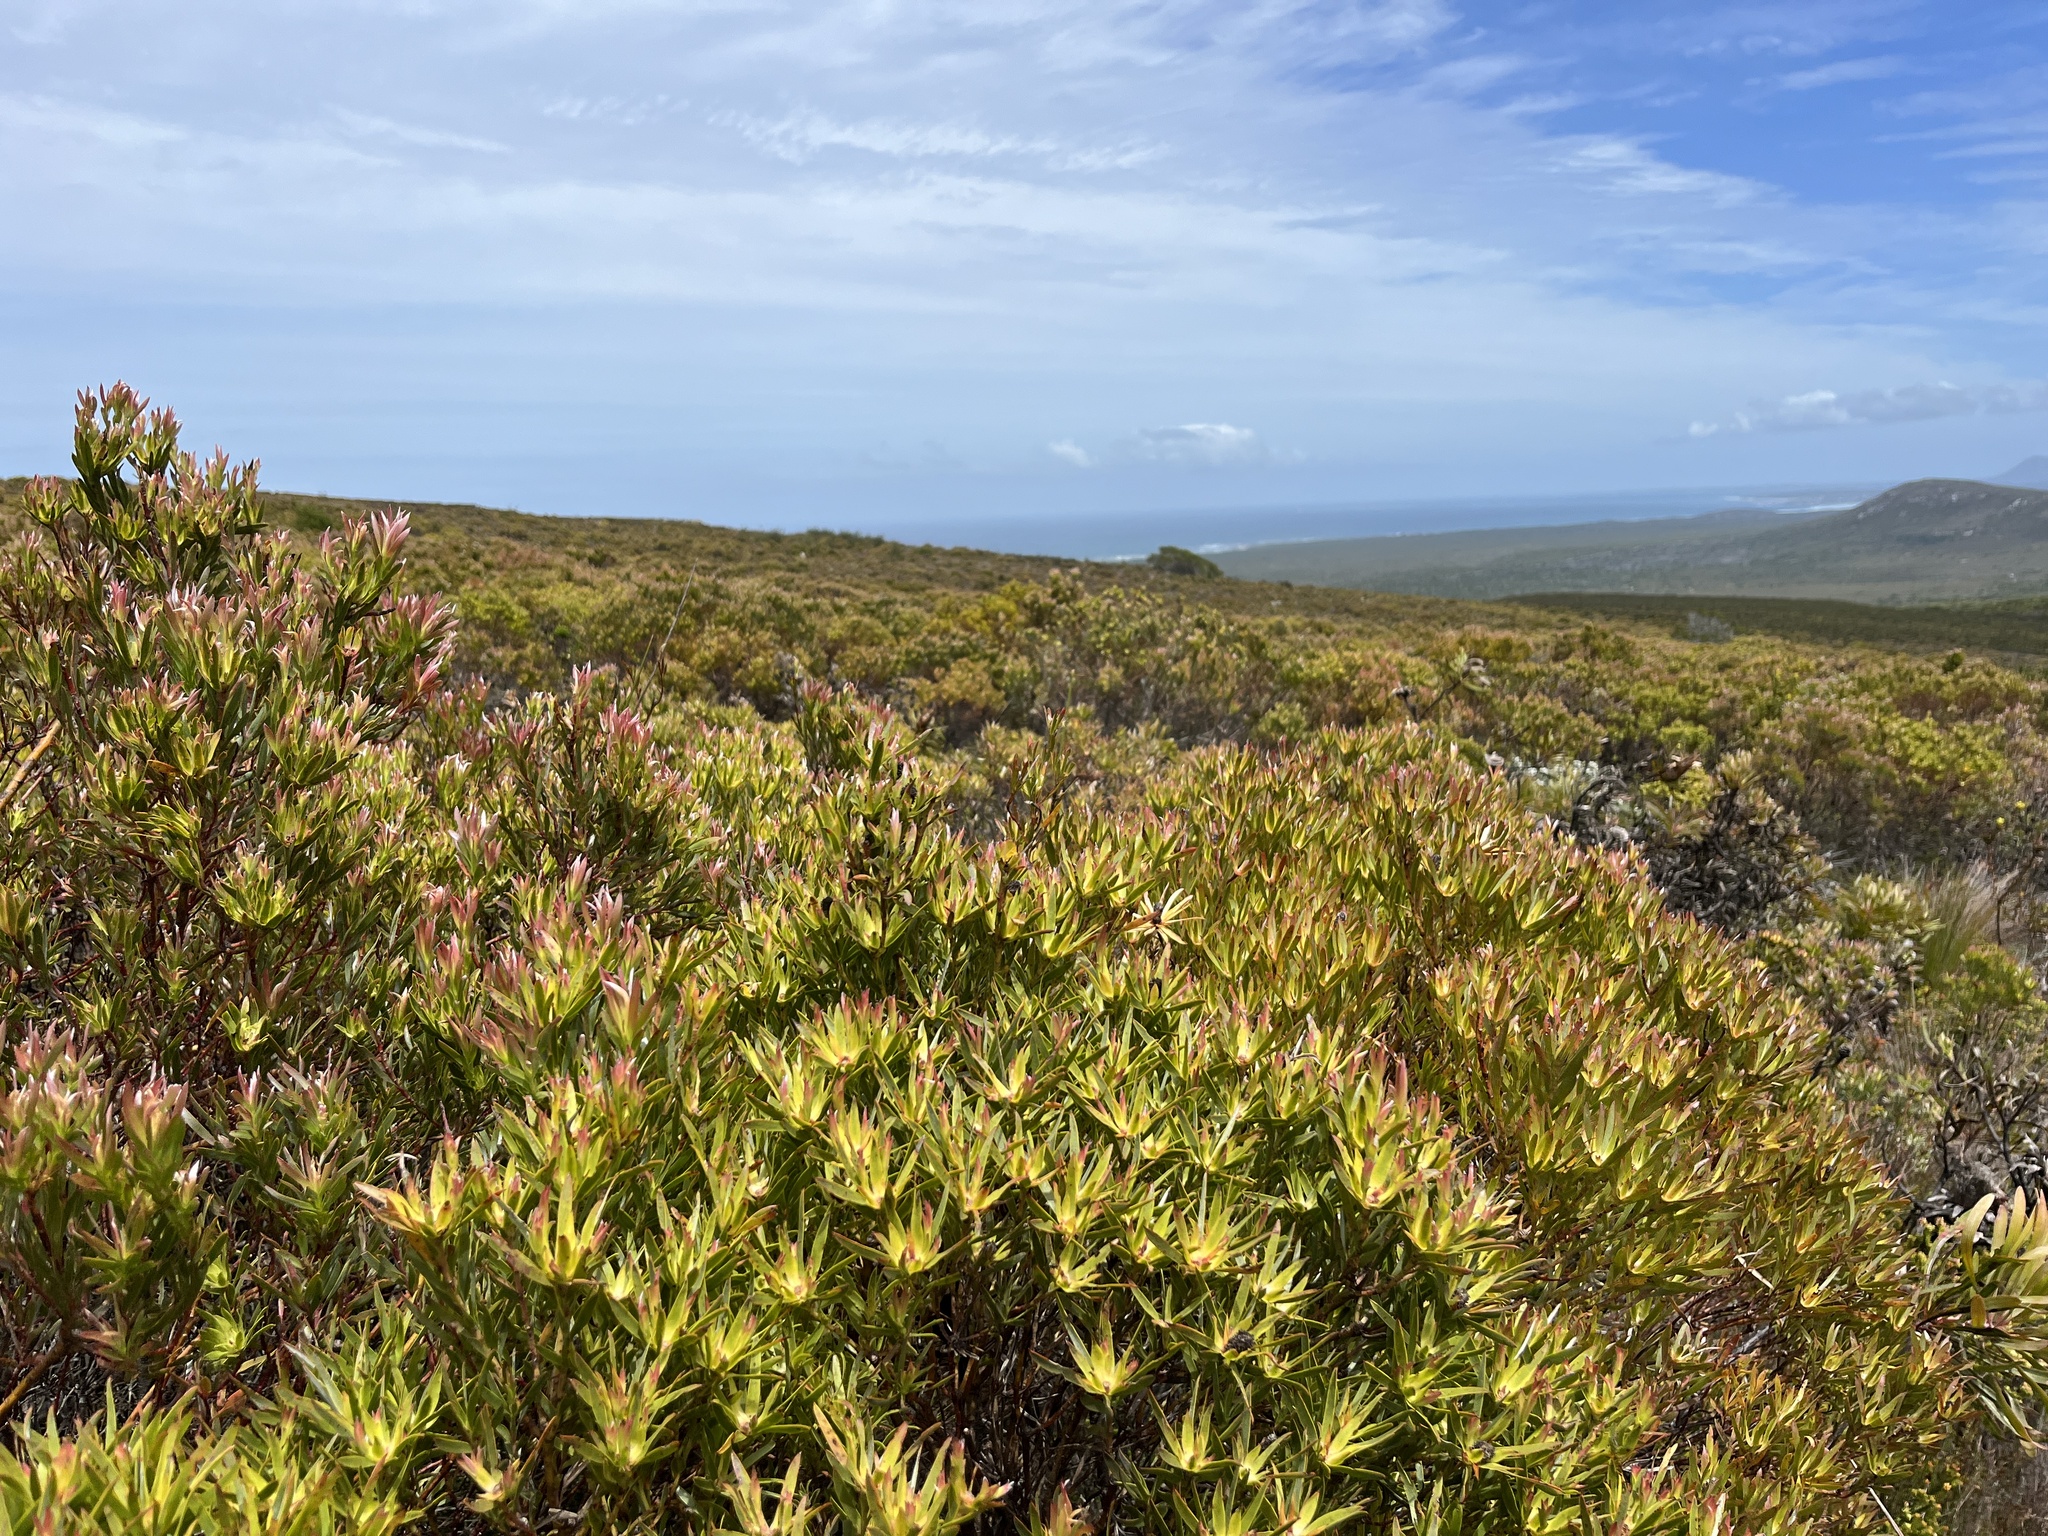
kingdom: Plantae
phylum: Tracheophyta
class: Magnoliopsida
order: Proteales
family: Proteaceae
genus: Leucadendron
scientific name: Leucadendron xanthoconus
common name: Sickle-leaf conebush
